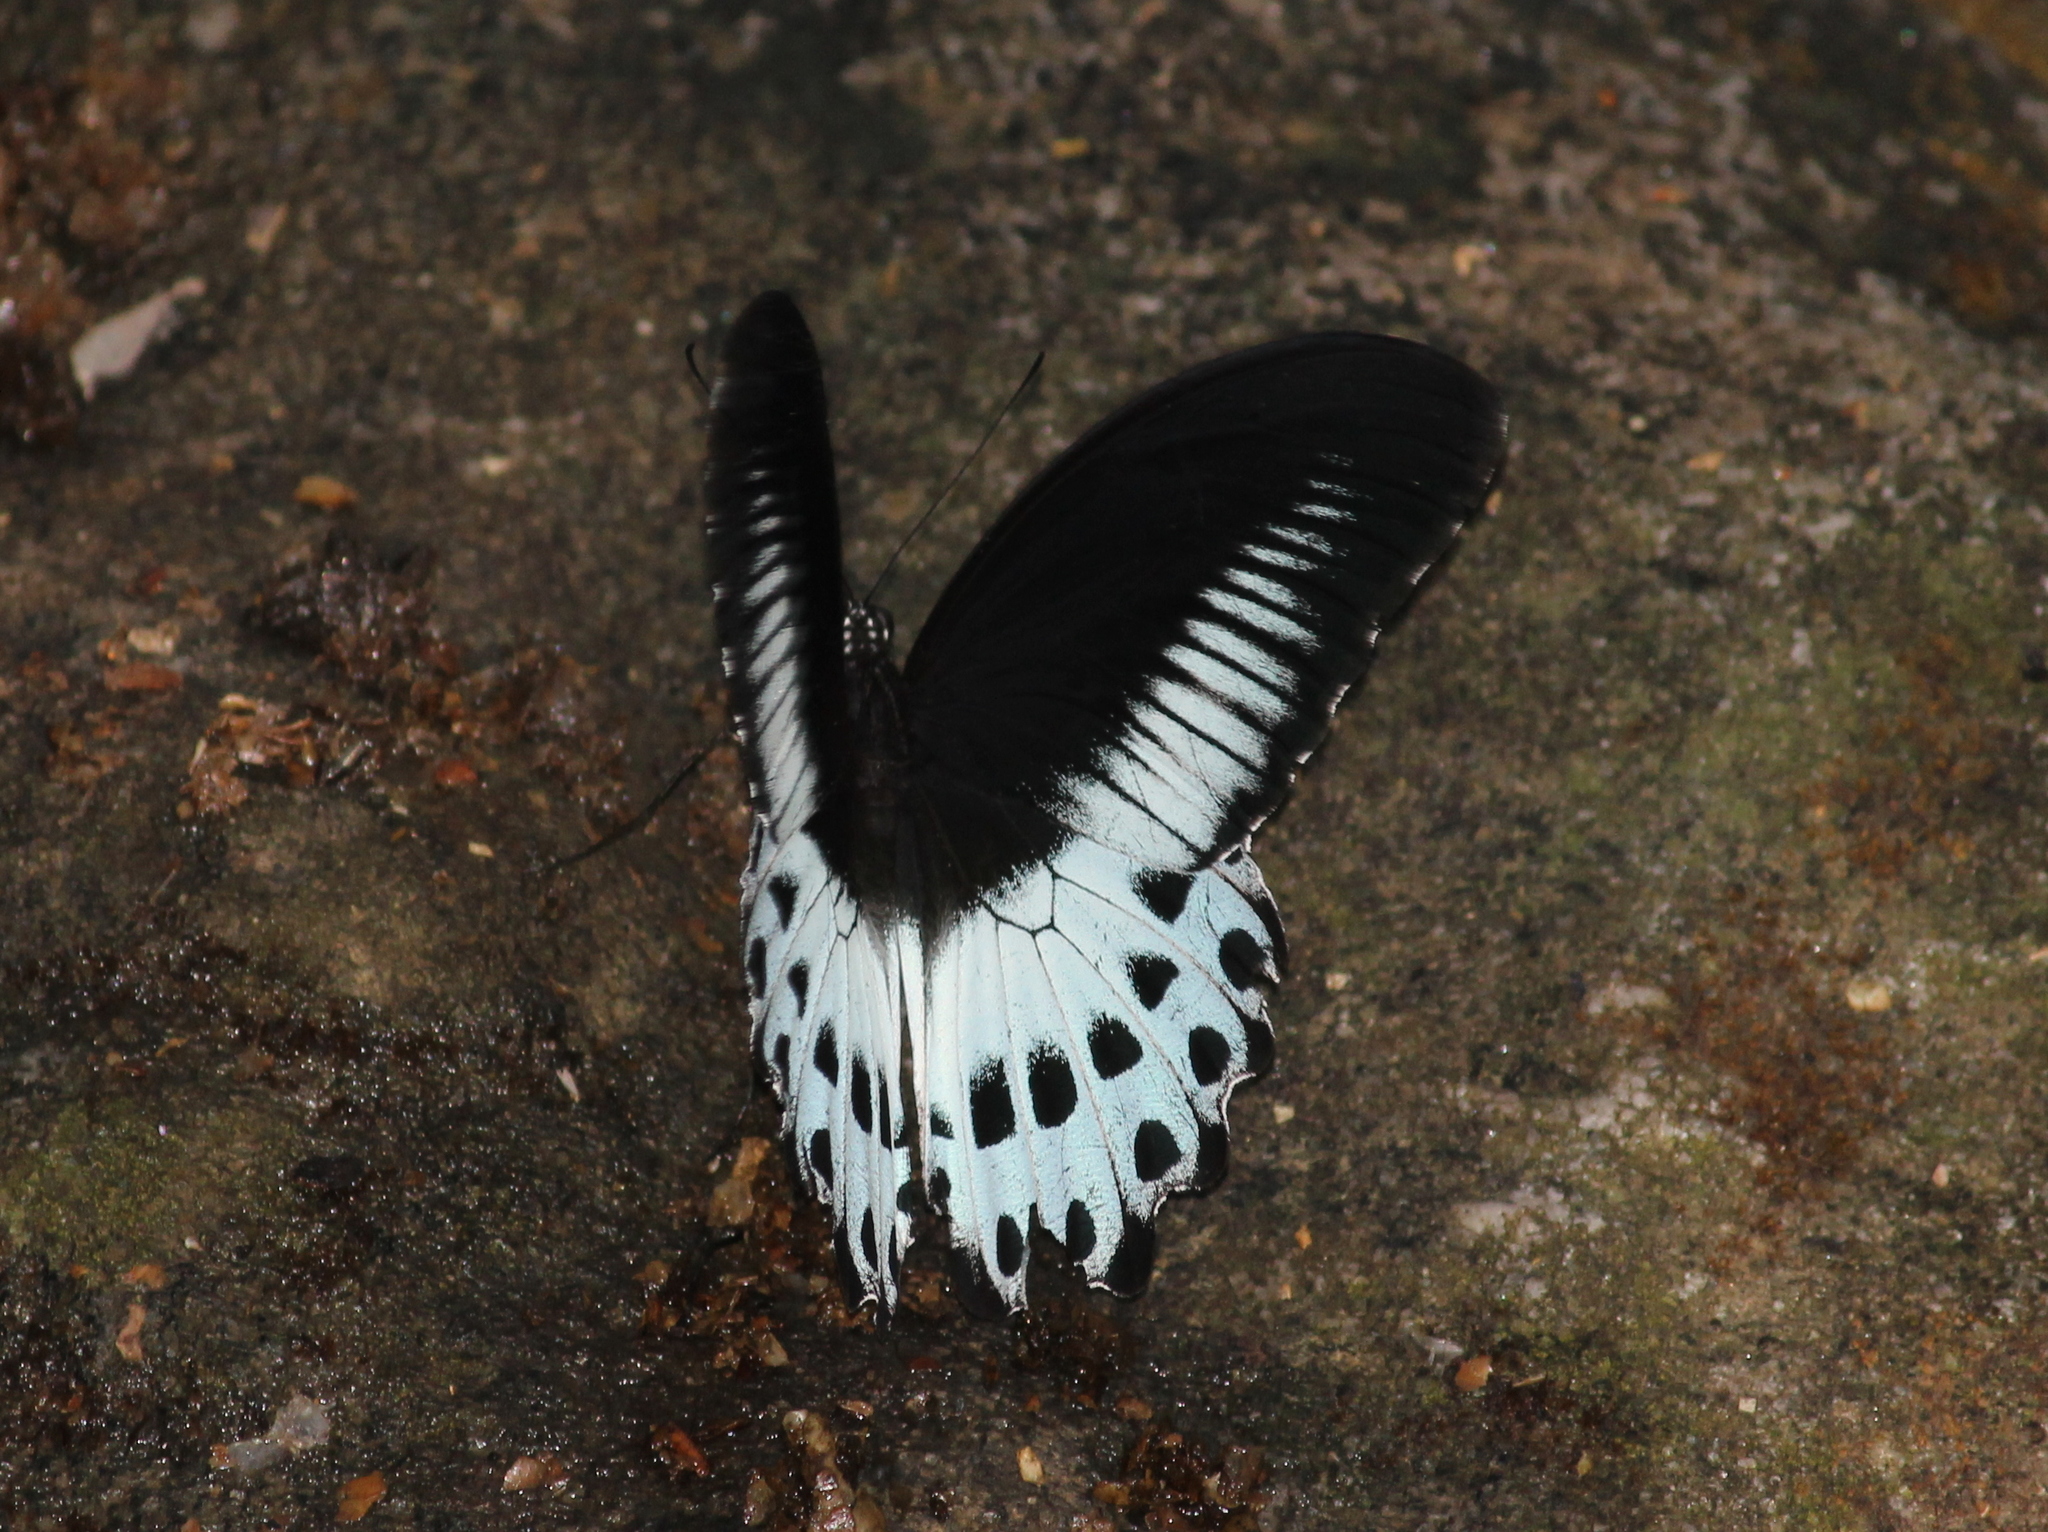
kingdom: Animalia
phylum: Arthropoda
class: Insecta
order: Lepidoptera
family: Papilionidae
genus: Papilio
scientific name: Papilio memnon
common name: Great mormon
